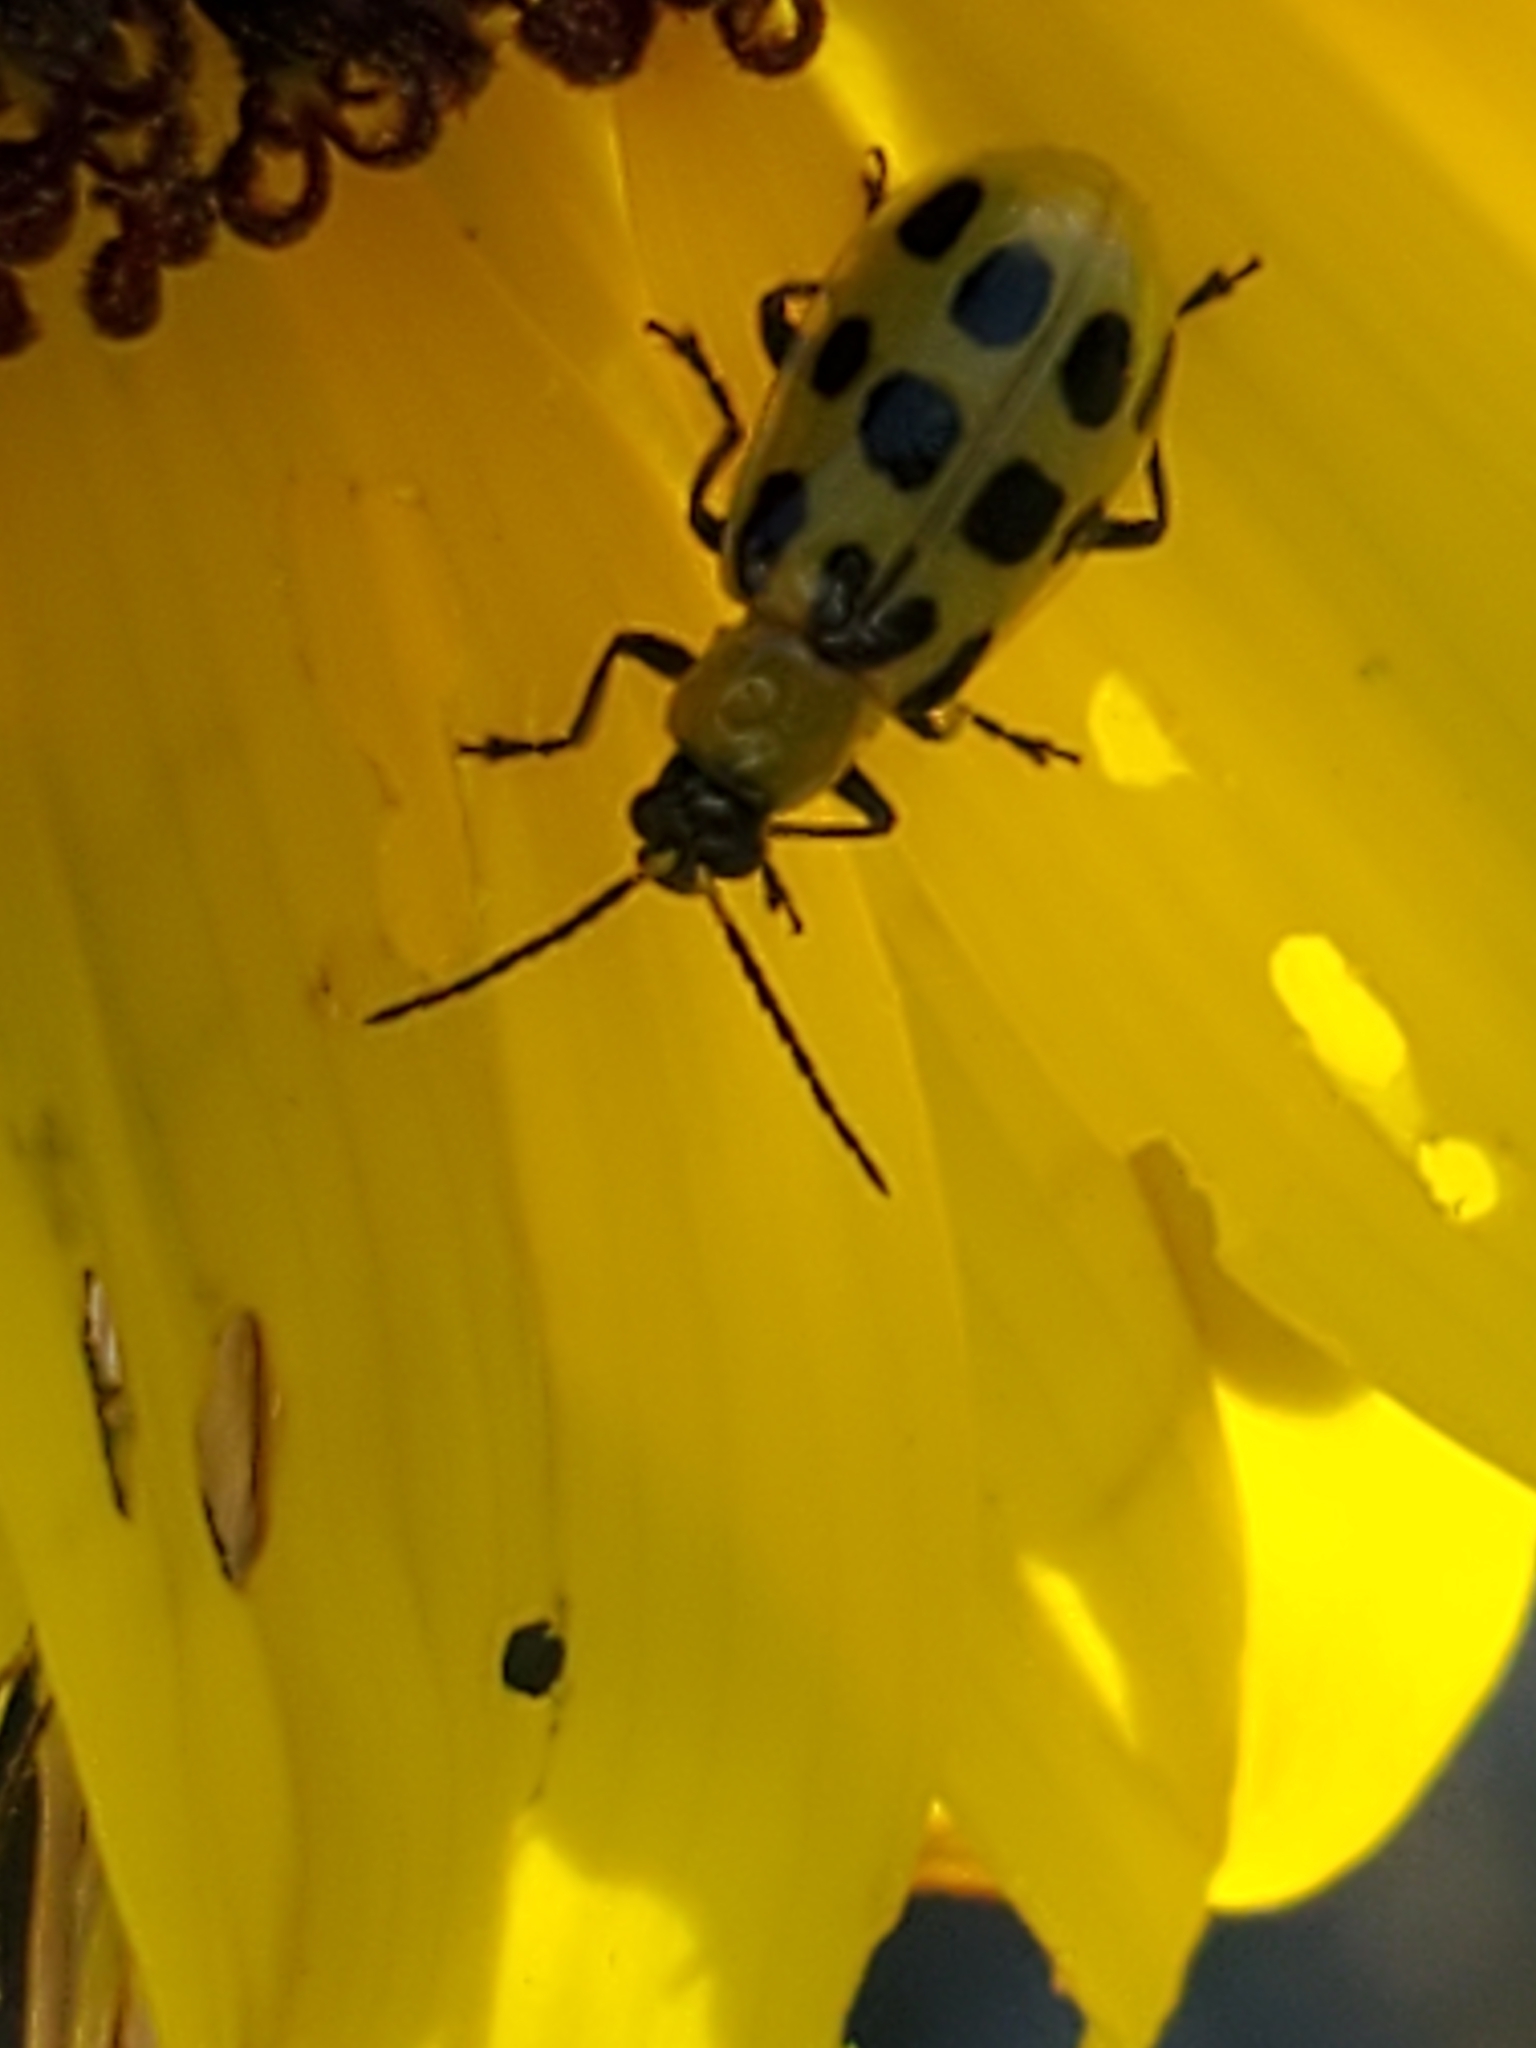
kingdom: Animalia
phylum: Arthropoda
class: Insecta
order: Coleoptera
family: Chrysomelidae
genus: Diabrotica
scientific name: Diabrotica undecimpunctata
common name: Spotted cucumber beetle
